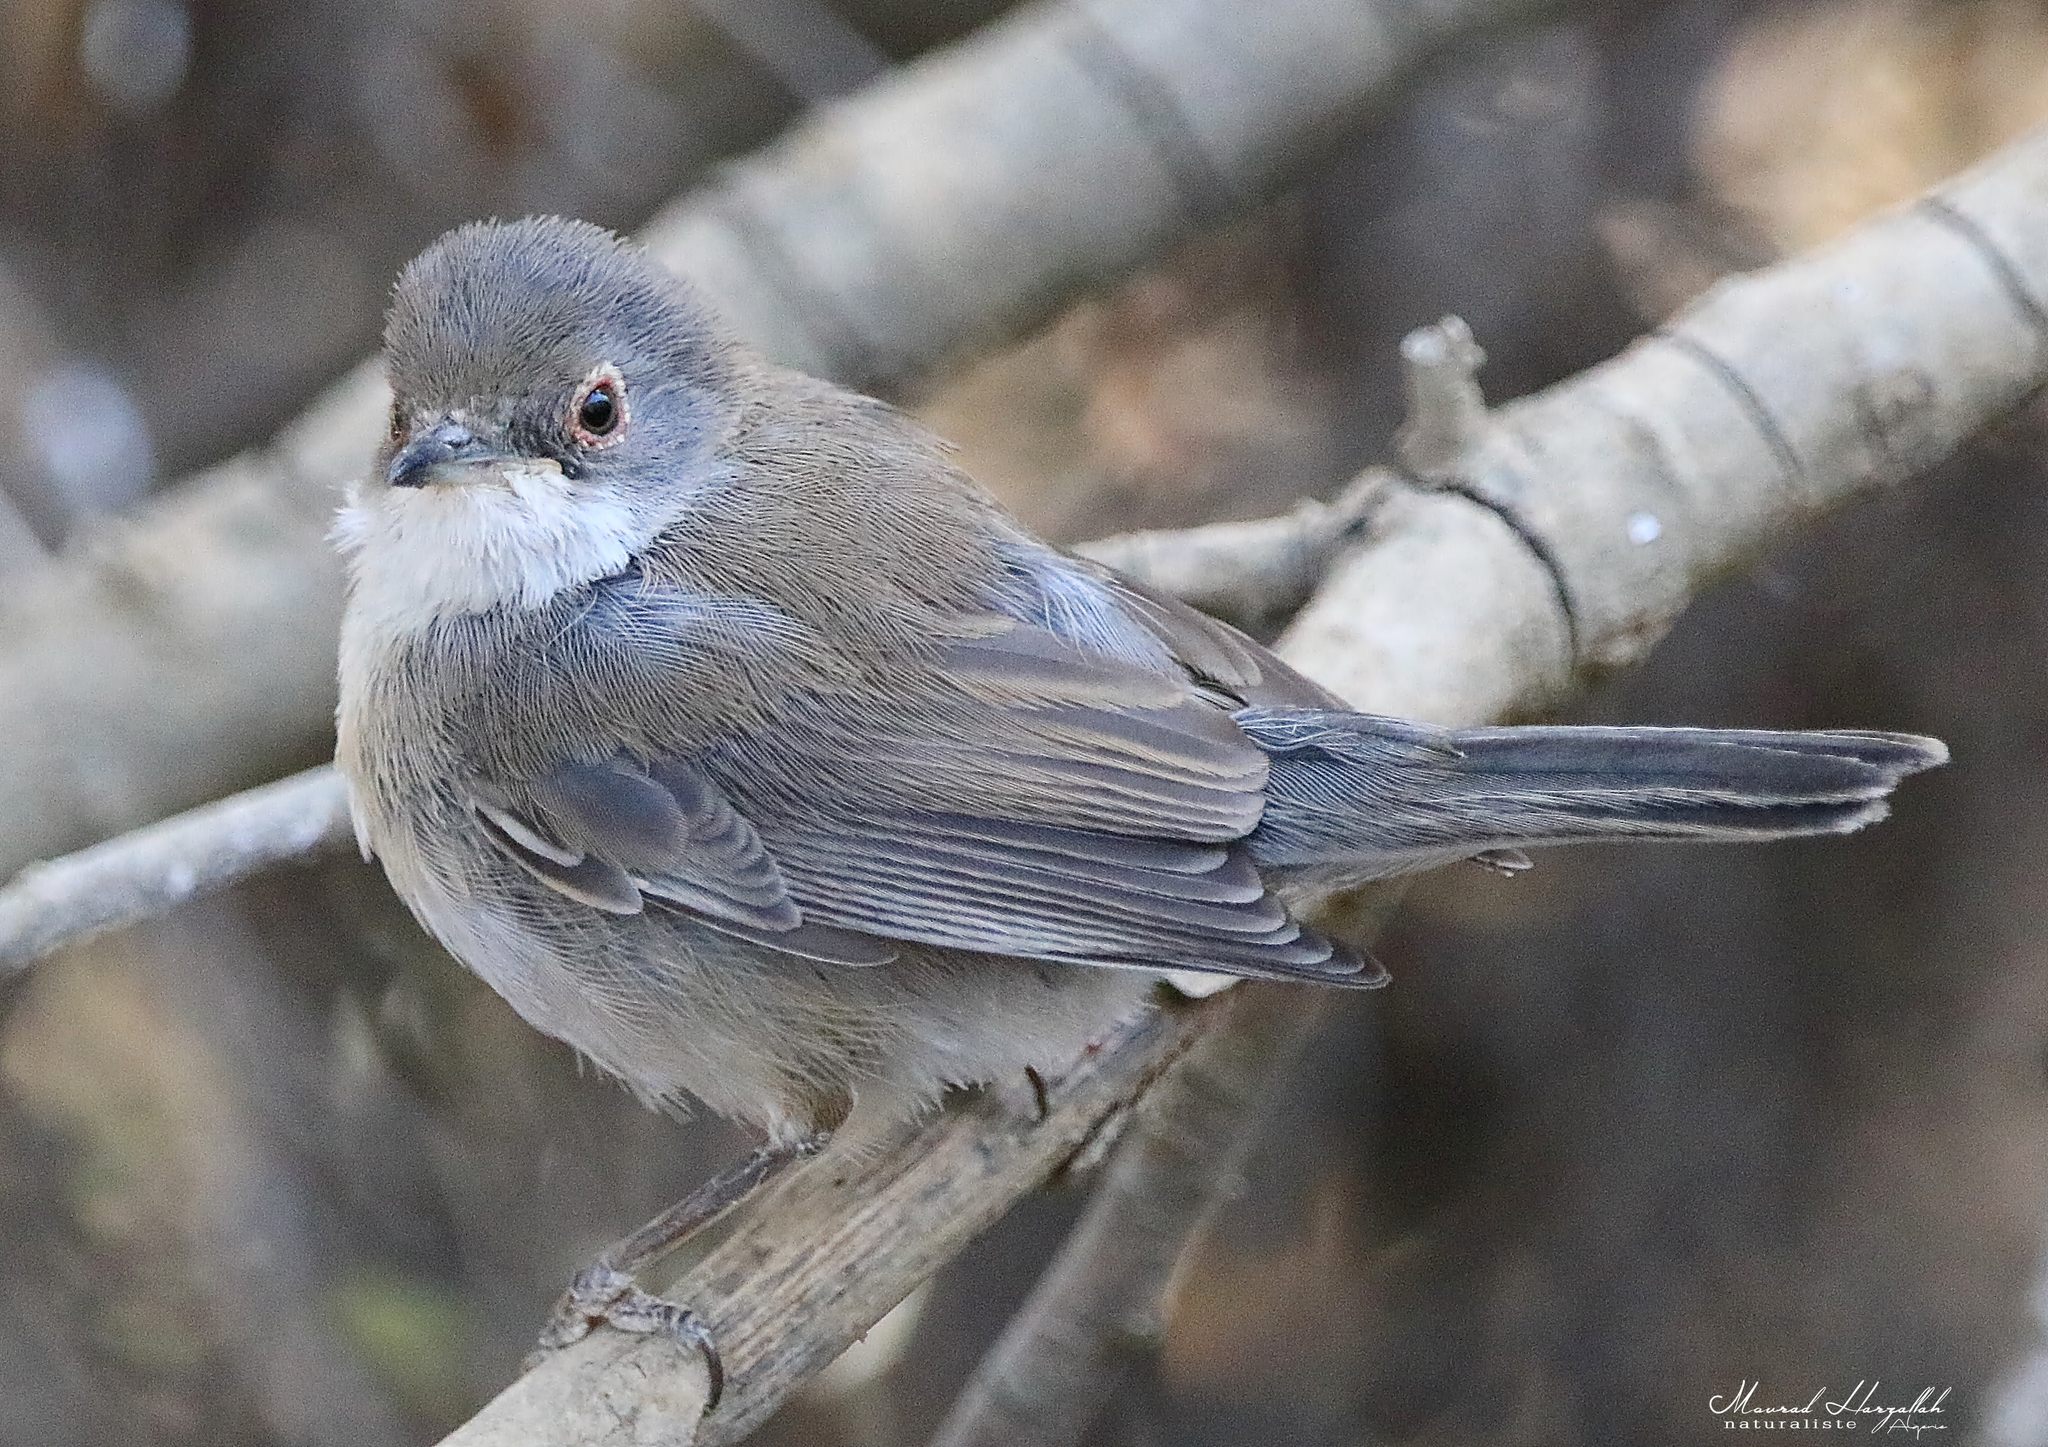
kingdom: Animalia
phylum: Chordata
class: Aves
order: Passeriformes
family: Sylviidae
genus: Curruca
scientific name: Curruca melanocephala
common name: Sardinian warbler
